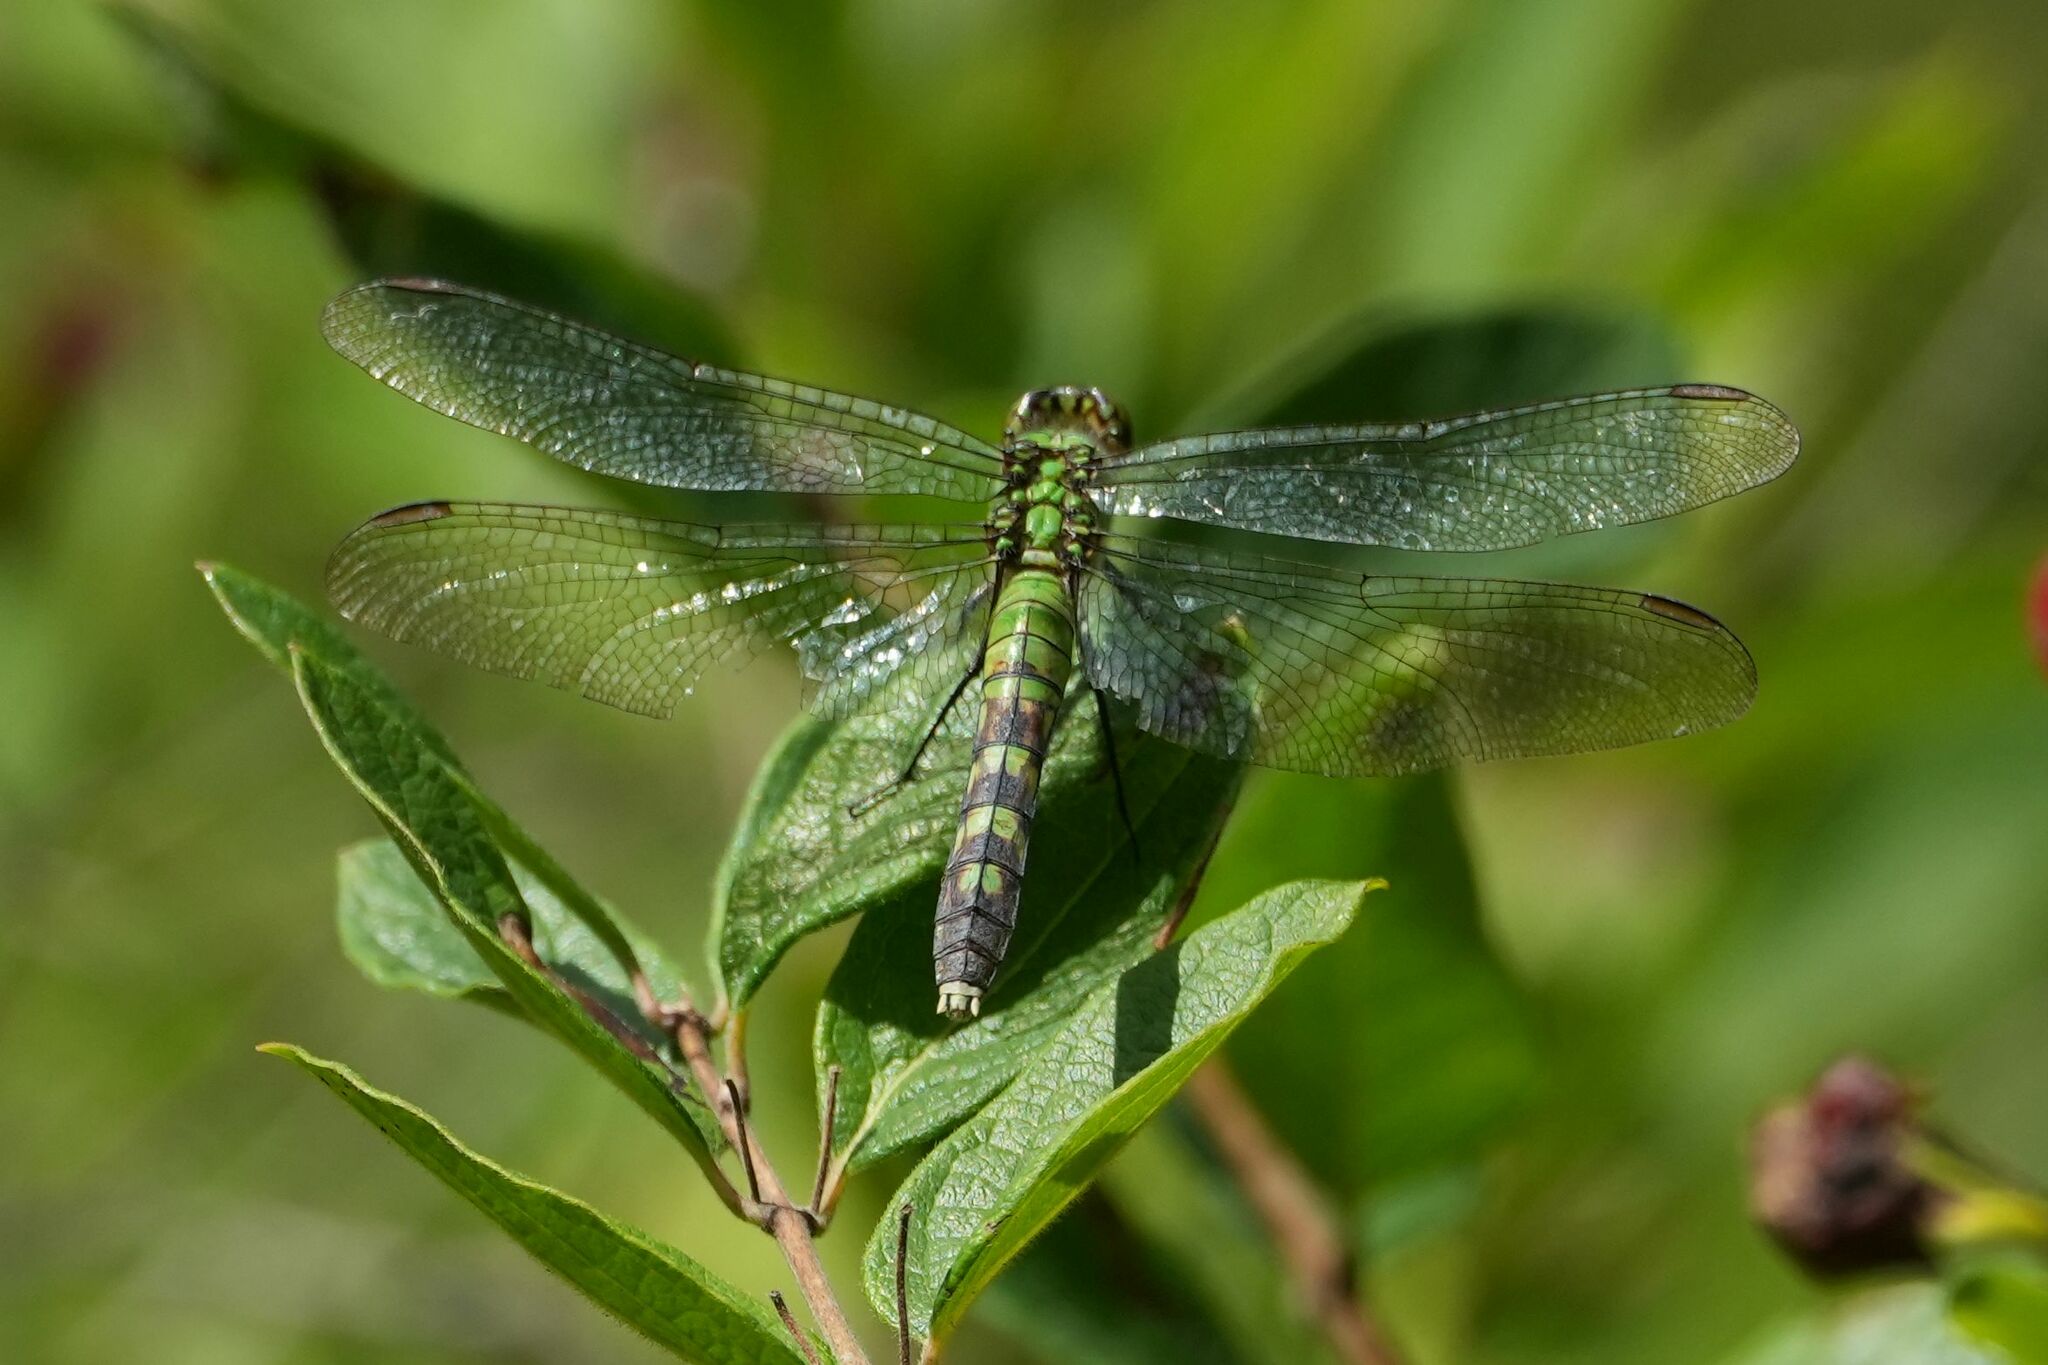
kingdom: Animalia
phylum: Arthropoda
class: Insecta
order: Odonata
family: Libellulidae
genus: Erythemis
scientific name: Erythemis simplicicollis
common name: Eastern pondhawk
